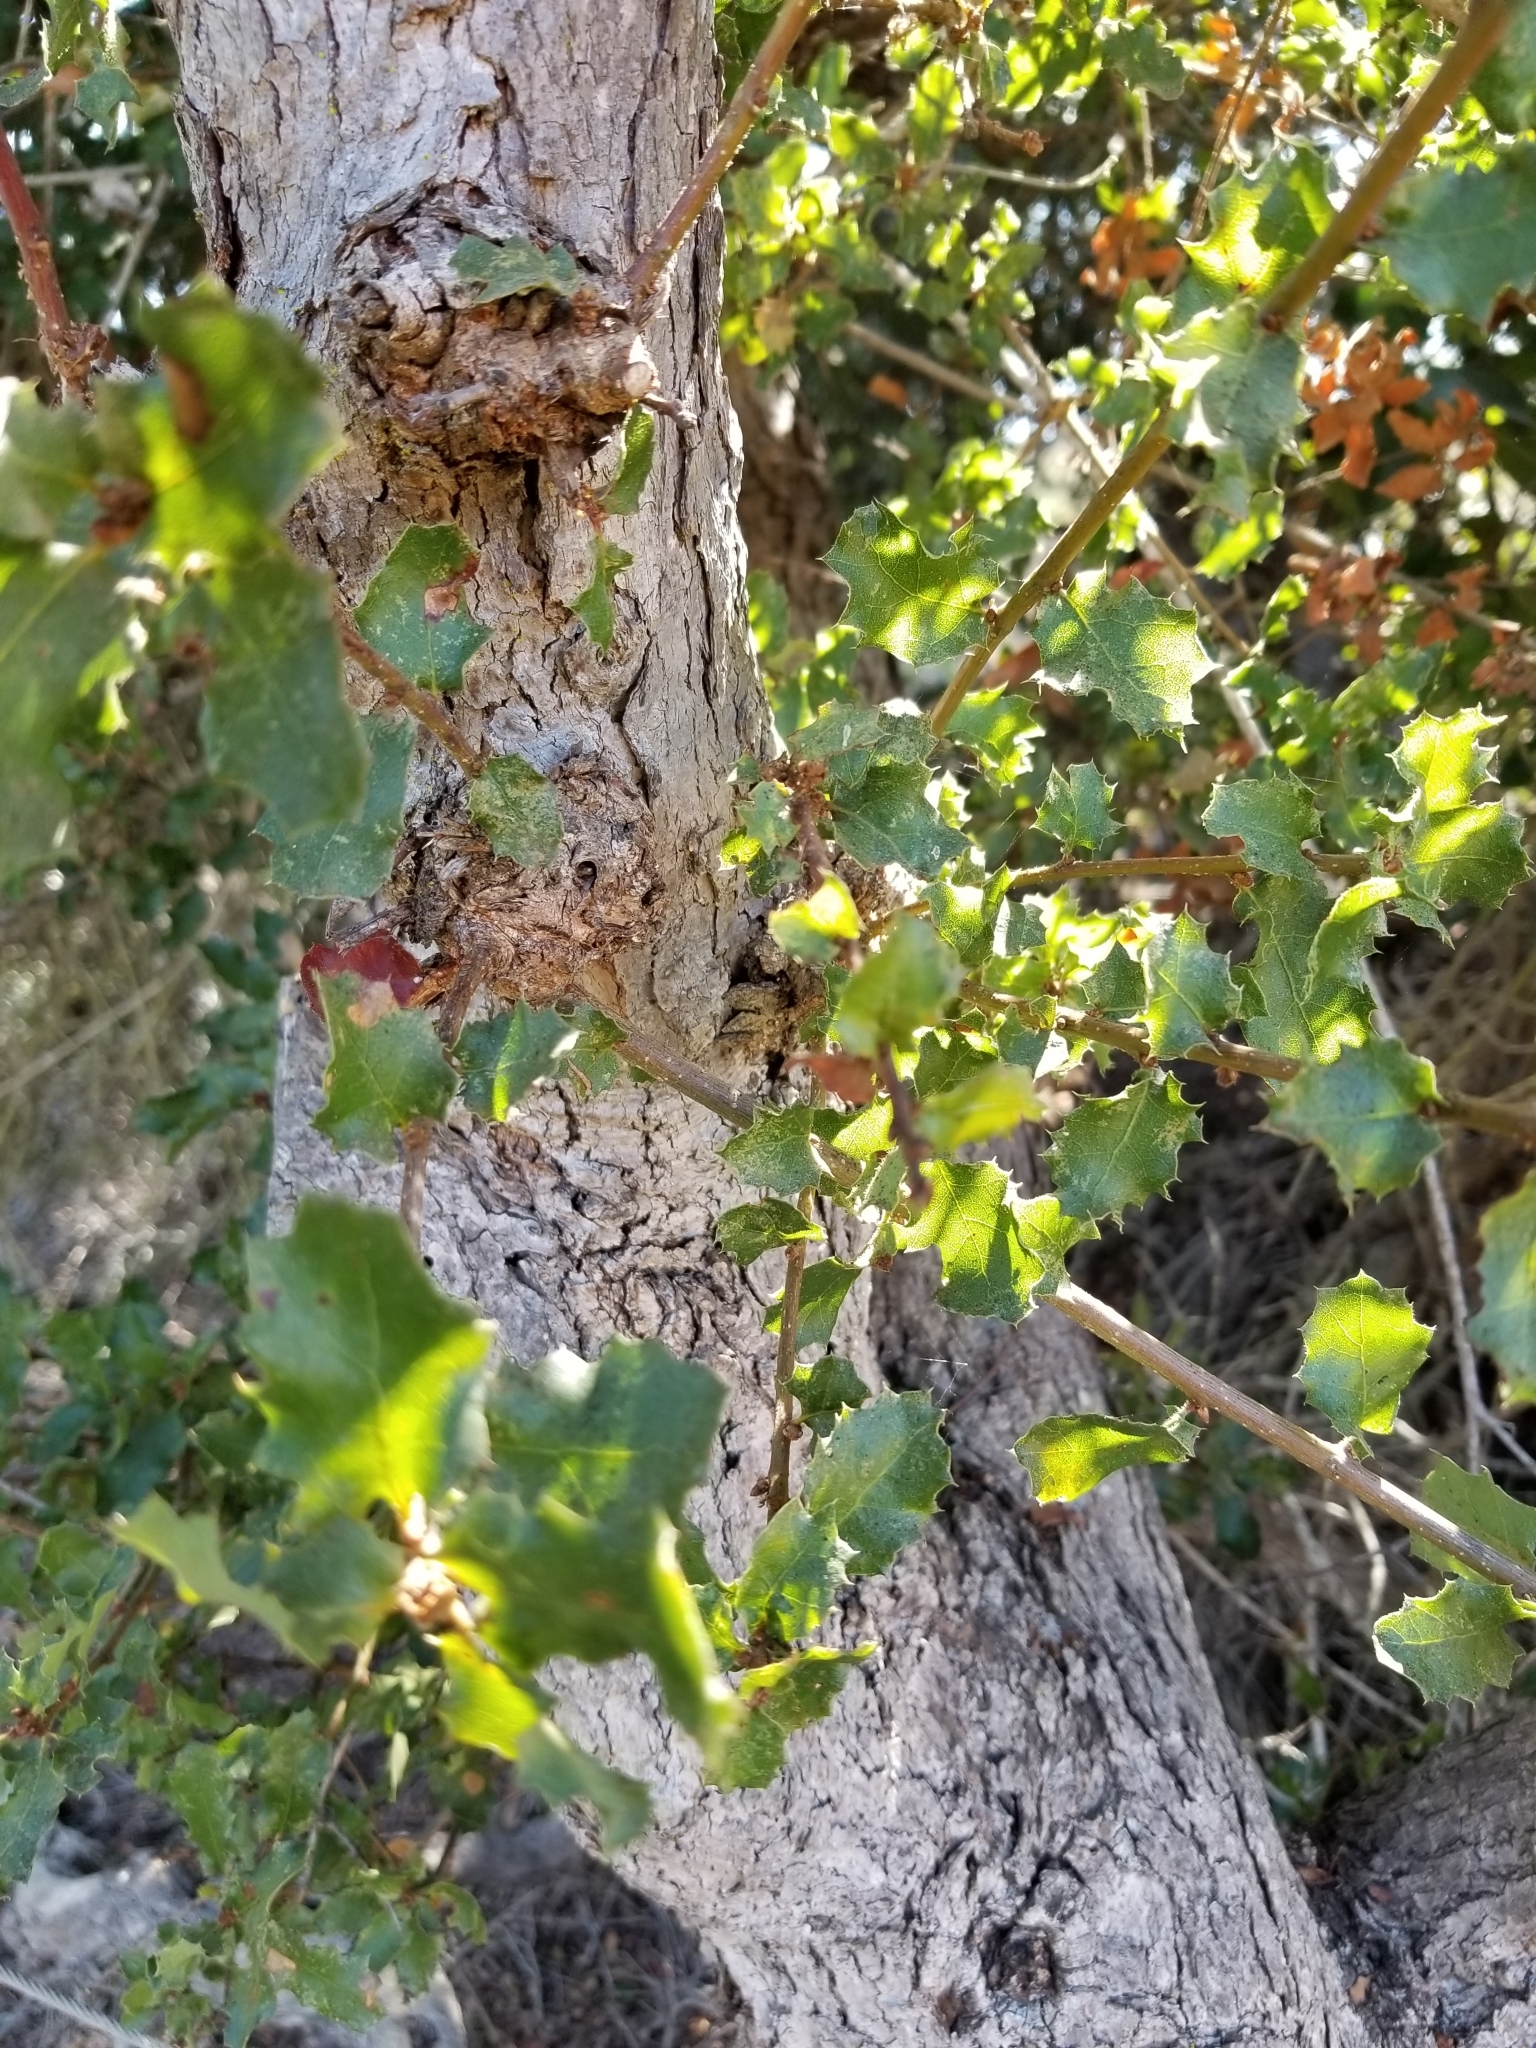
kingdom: Plantae
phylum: Tracheophyta
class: Magnoliopsida
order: Fagales
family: Fagaceae
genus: Quercus
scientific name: Quercus dumosa
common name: Coastal sage scrub oak
